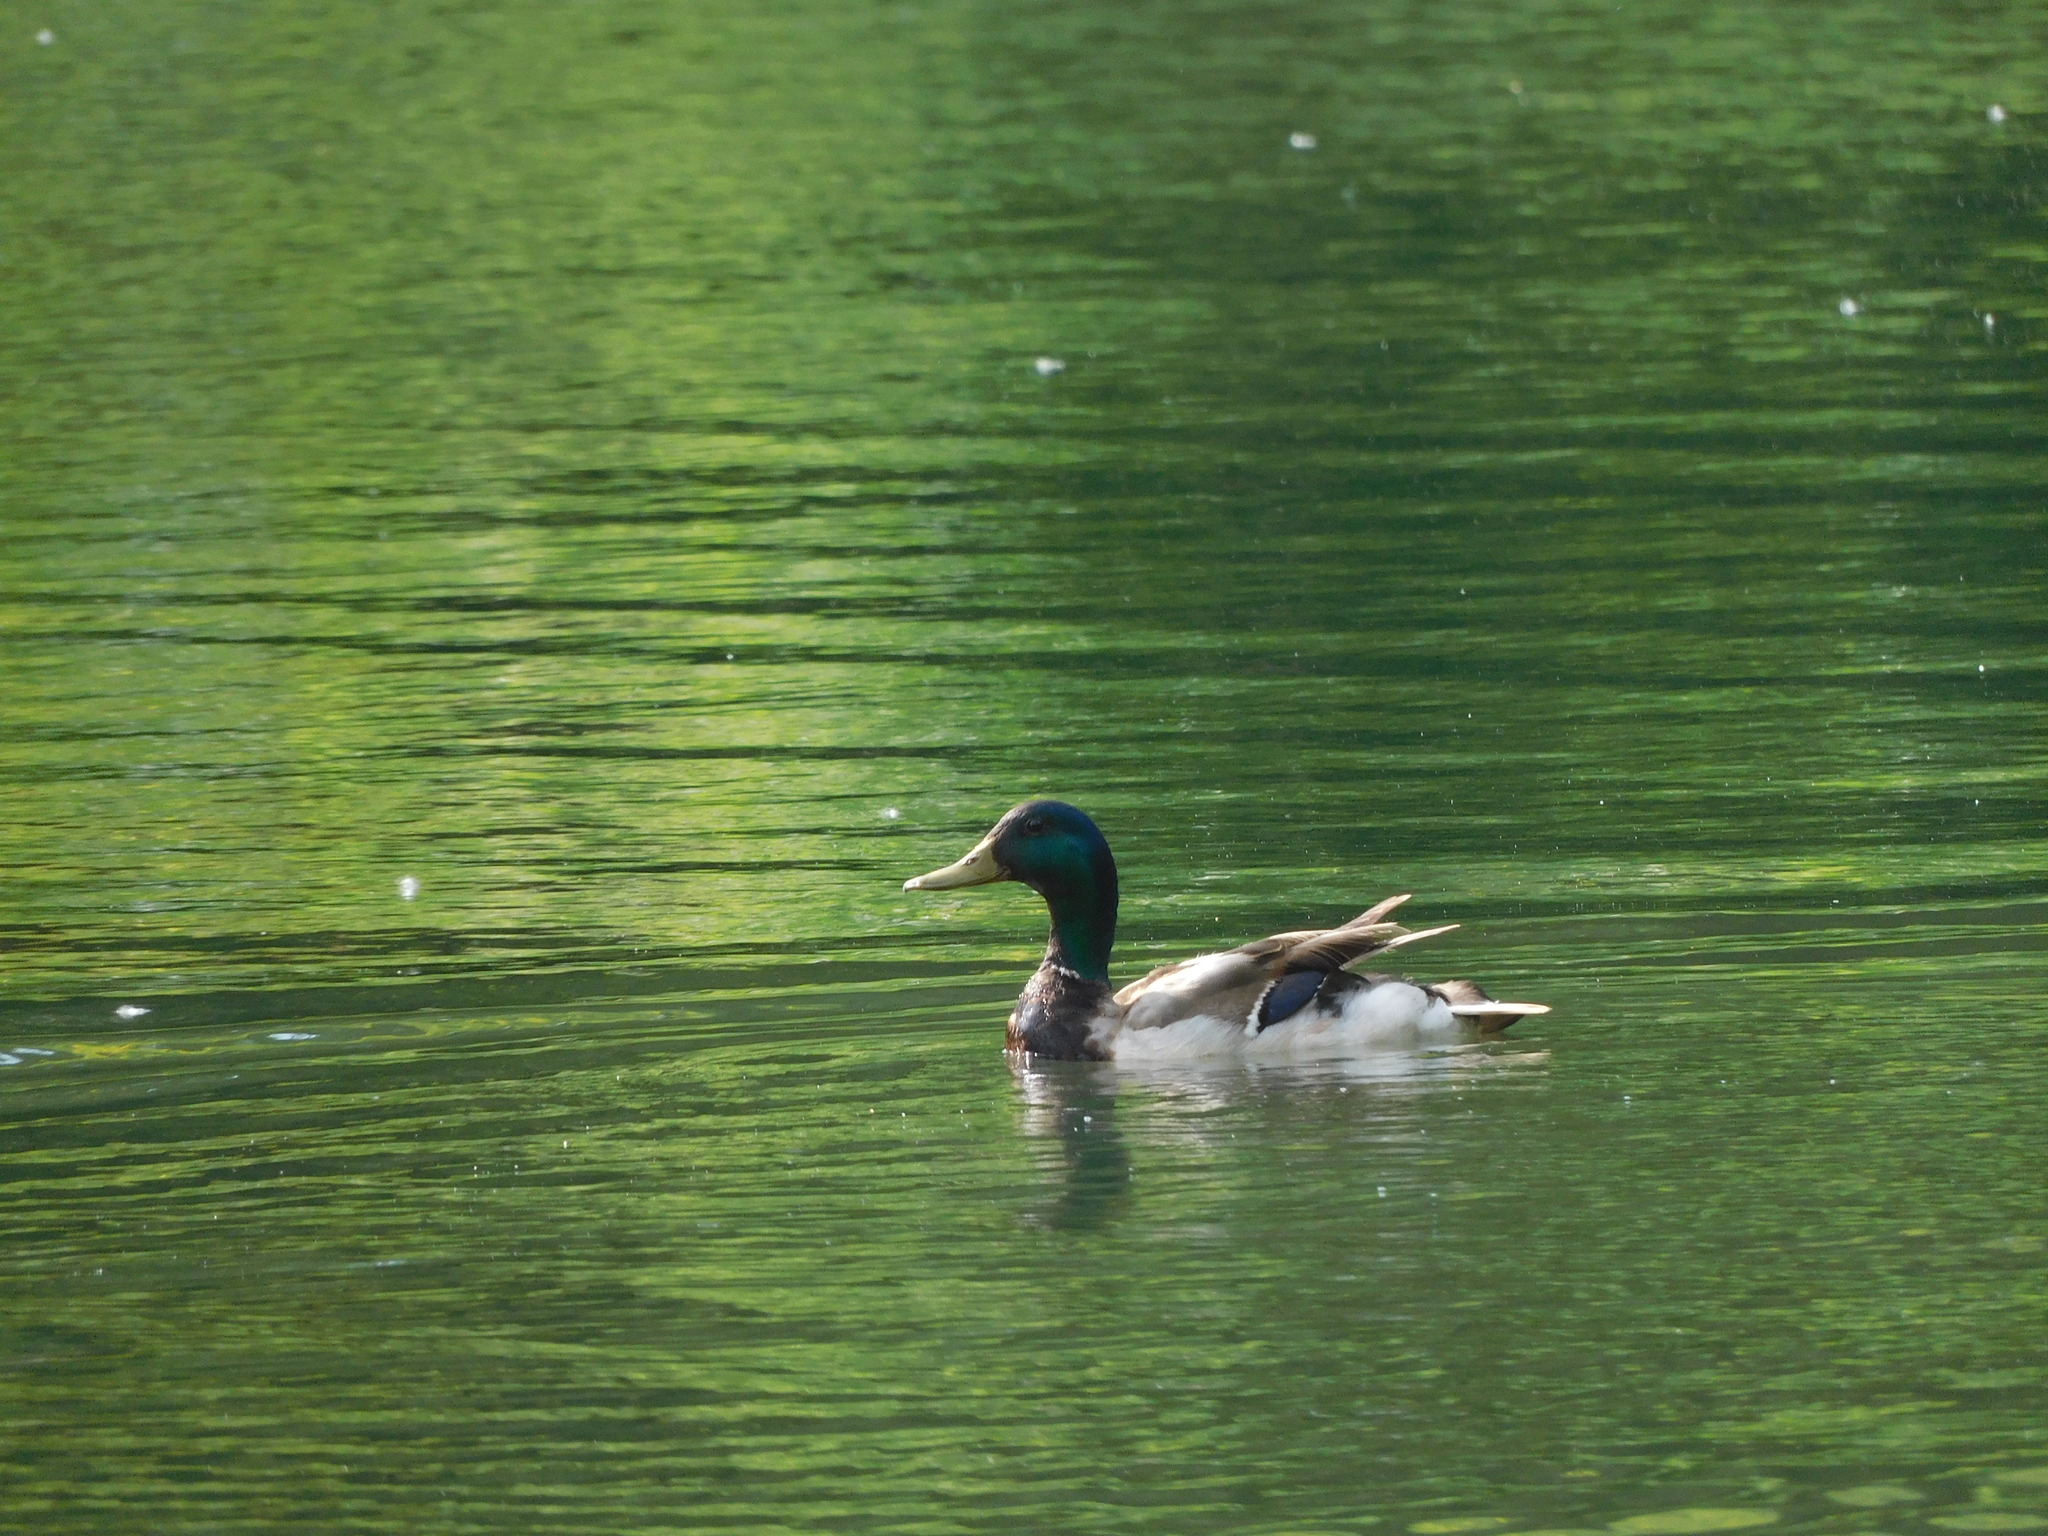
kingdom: Animalia
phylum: Chordata
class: Aves
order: Anseriformes
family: Anatidae
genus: Anas
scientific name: Anas platyrhynchos
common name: Mallard
